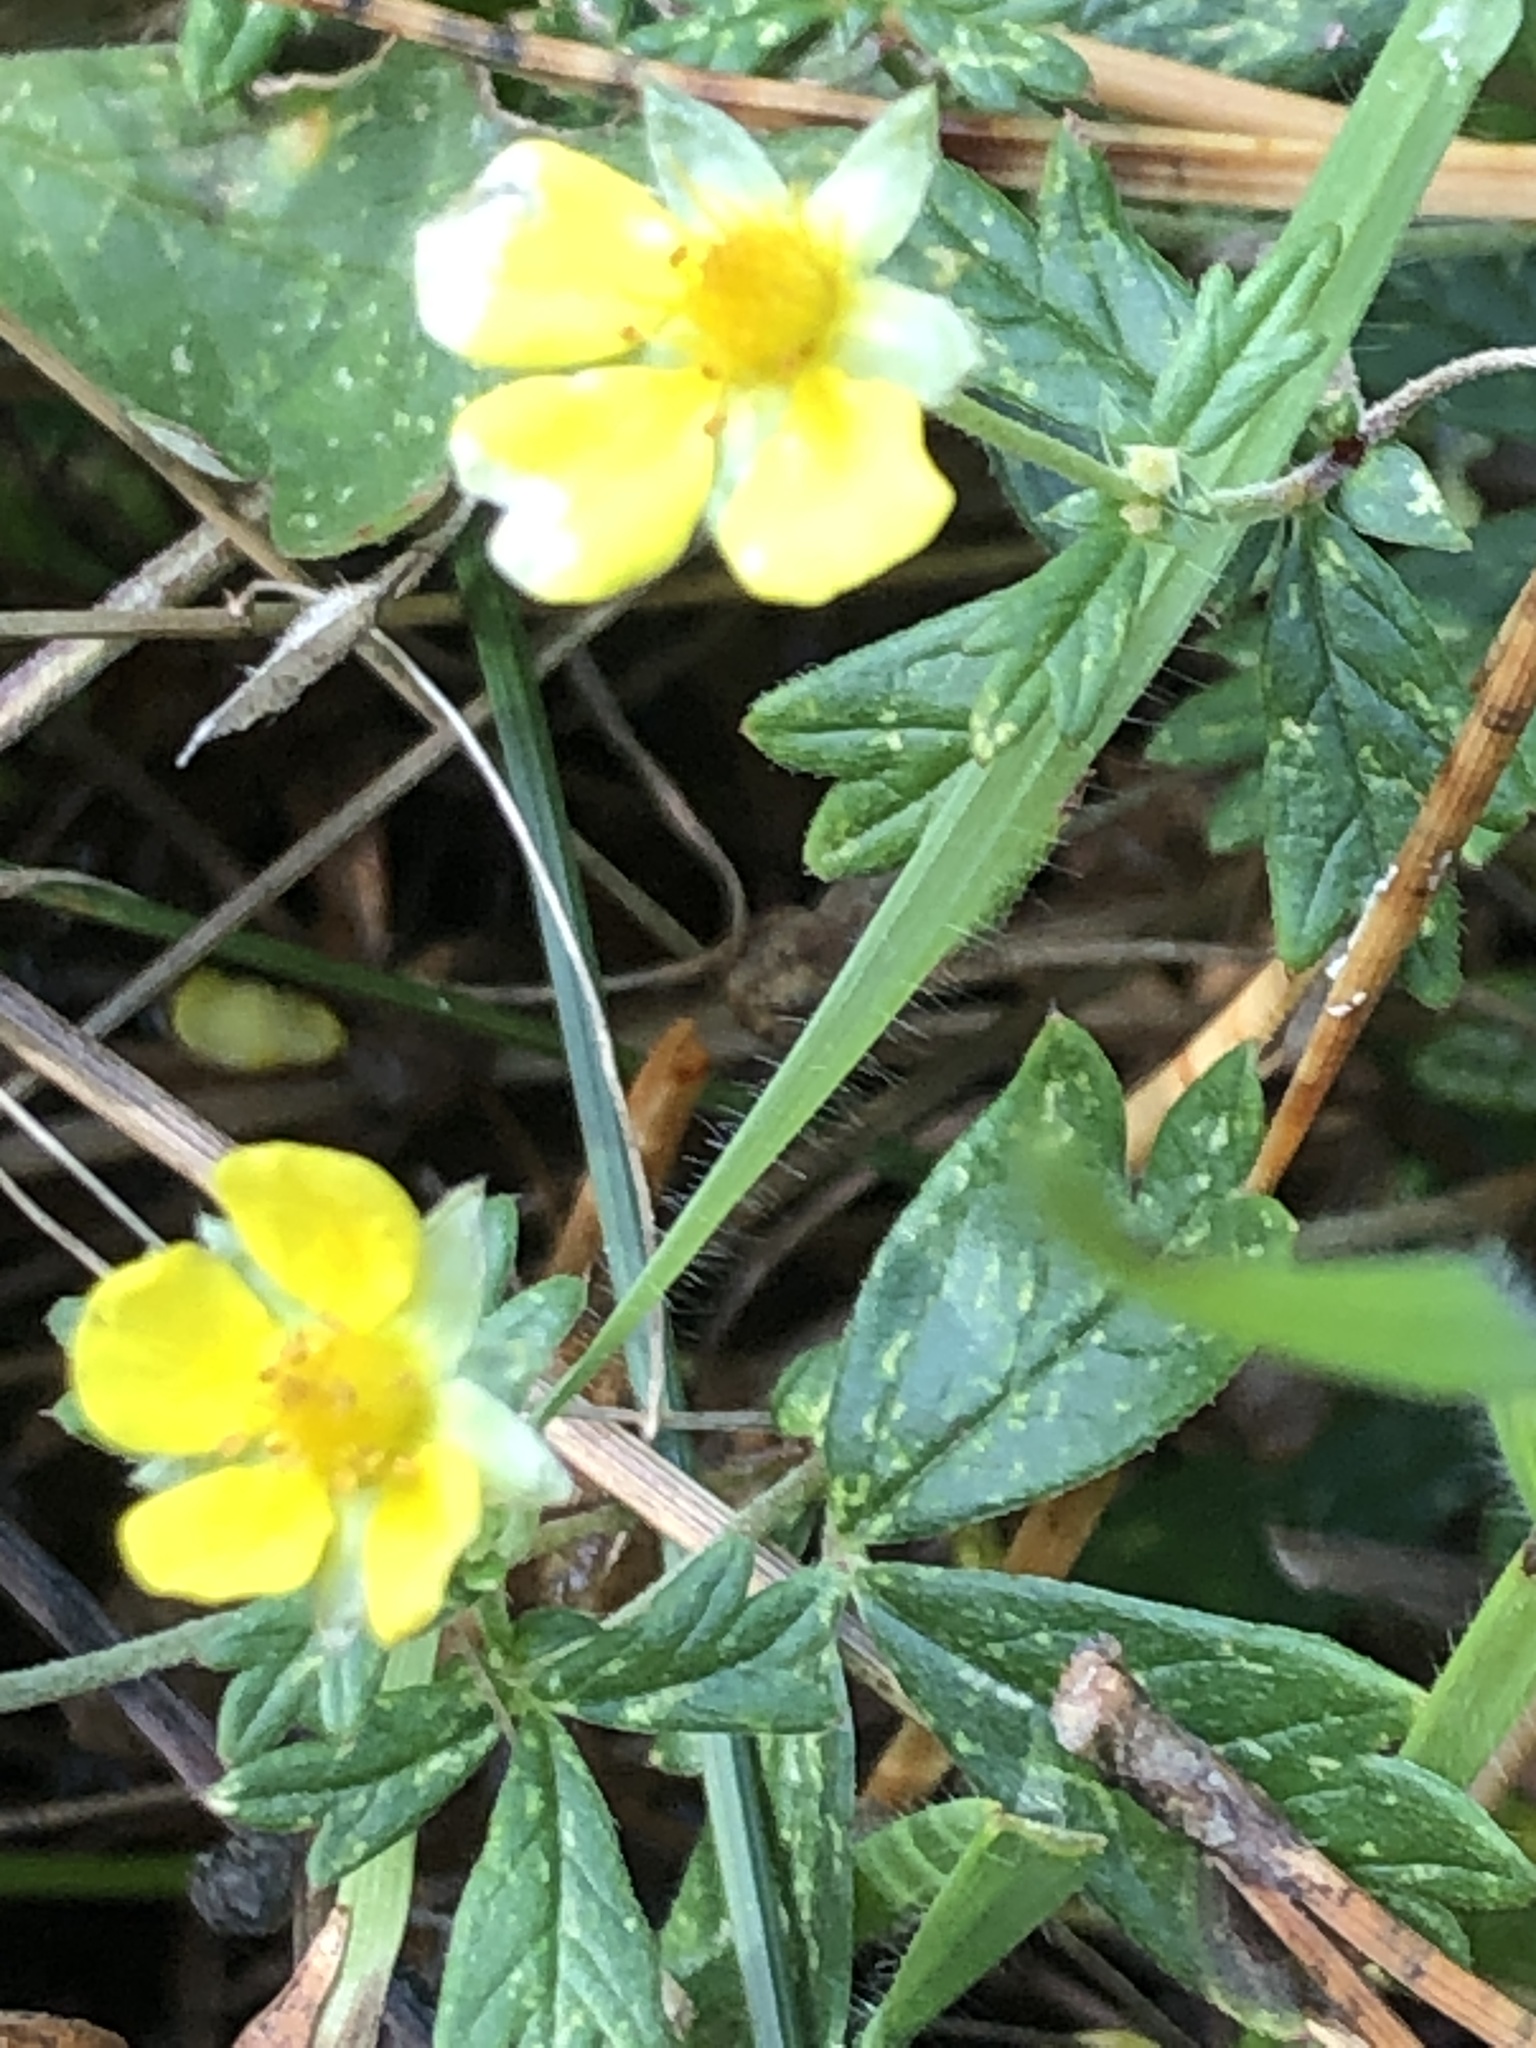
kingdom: Plantae
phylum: Tracheophyta
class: Magnoliopsida
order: Rosales
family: Rosaceae
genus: Potentilla
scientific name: Potentilla argentea
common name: Hoary cinquefoil
